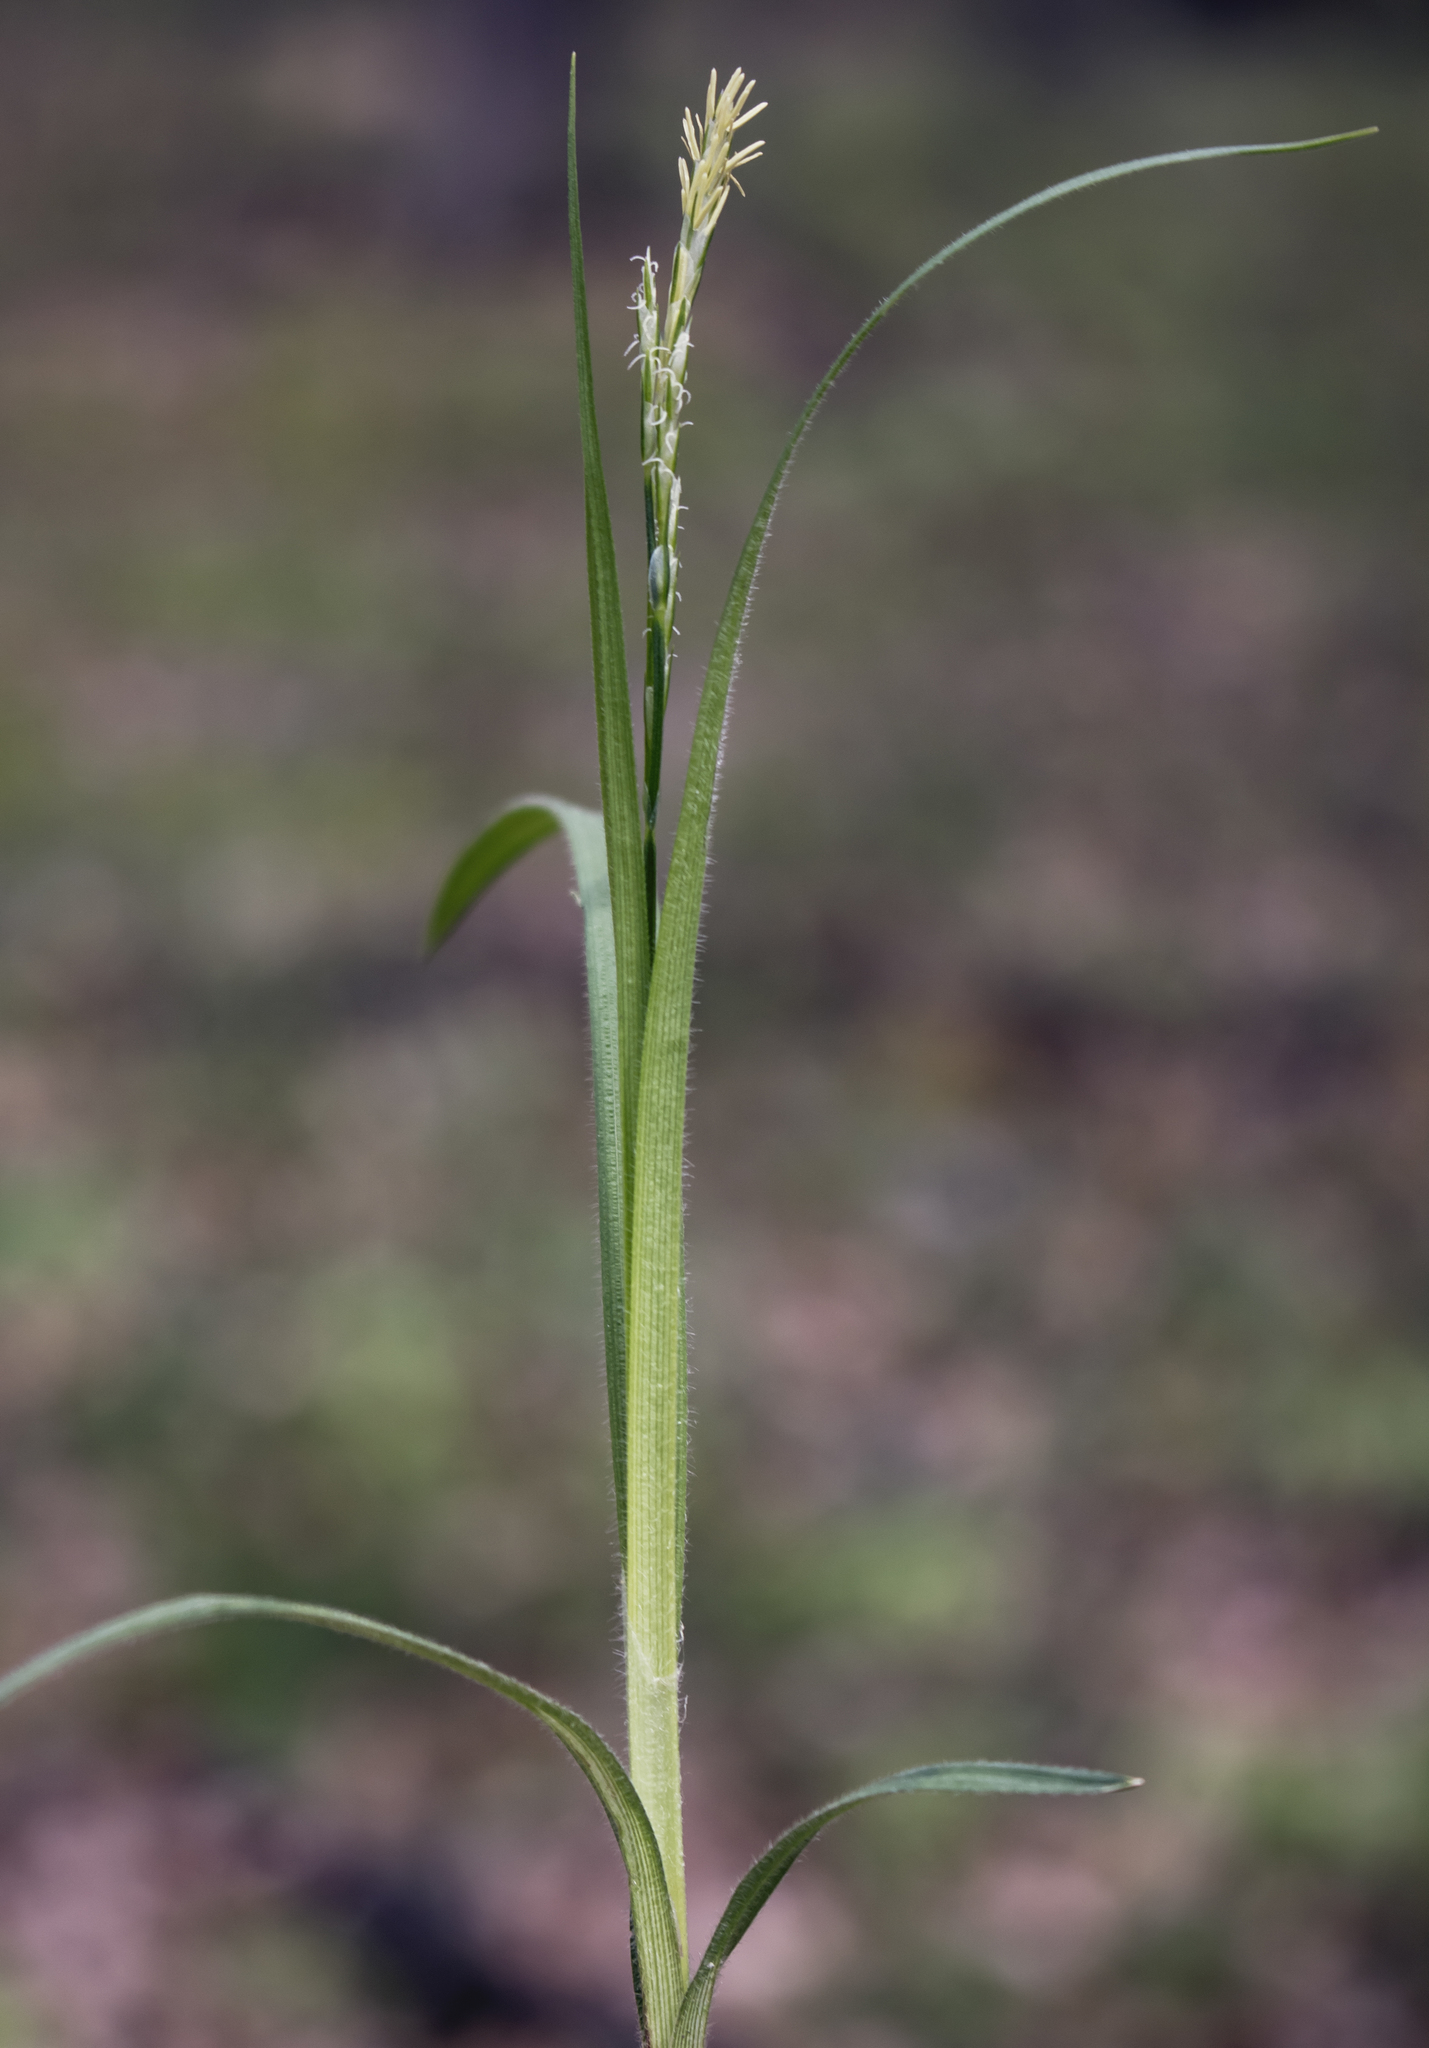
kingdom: Plantae
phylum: Tracheophyta
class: Liliopsida
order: Poales
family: Cyperaceae
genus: Carex
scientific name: Carex hirtifolia
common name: Hairy sedge
